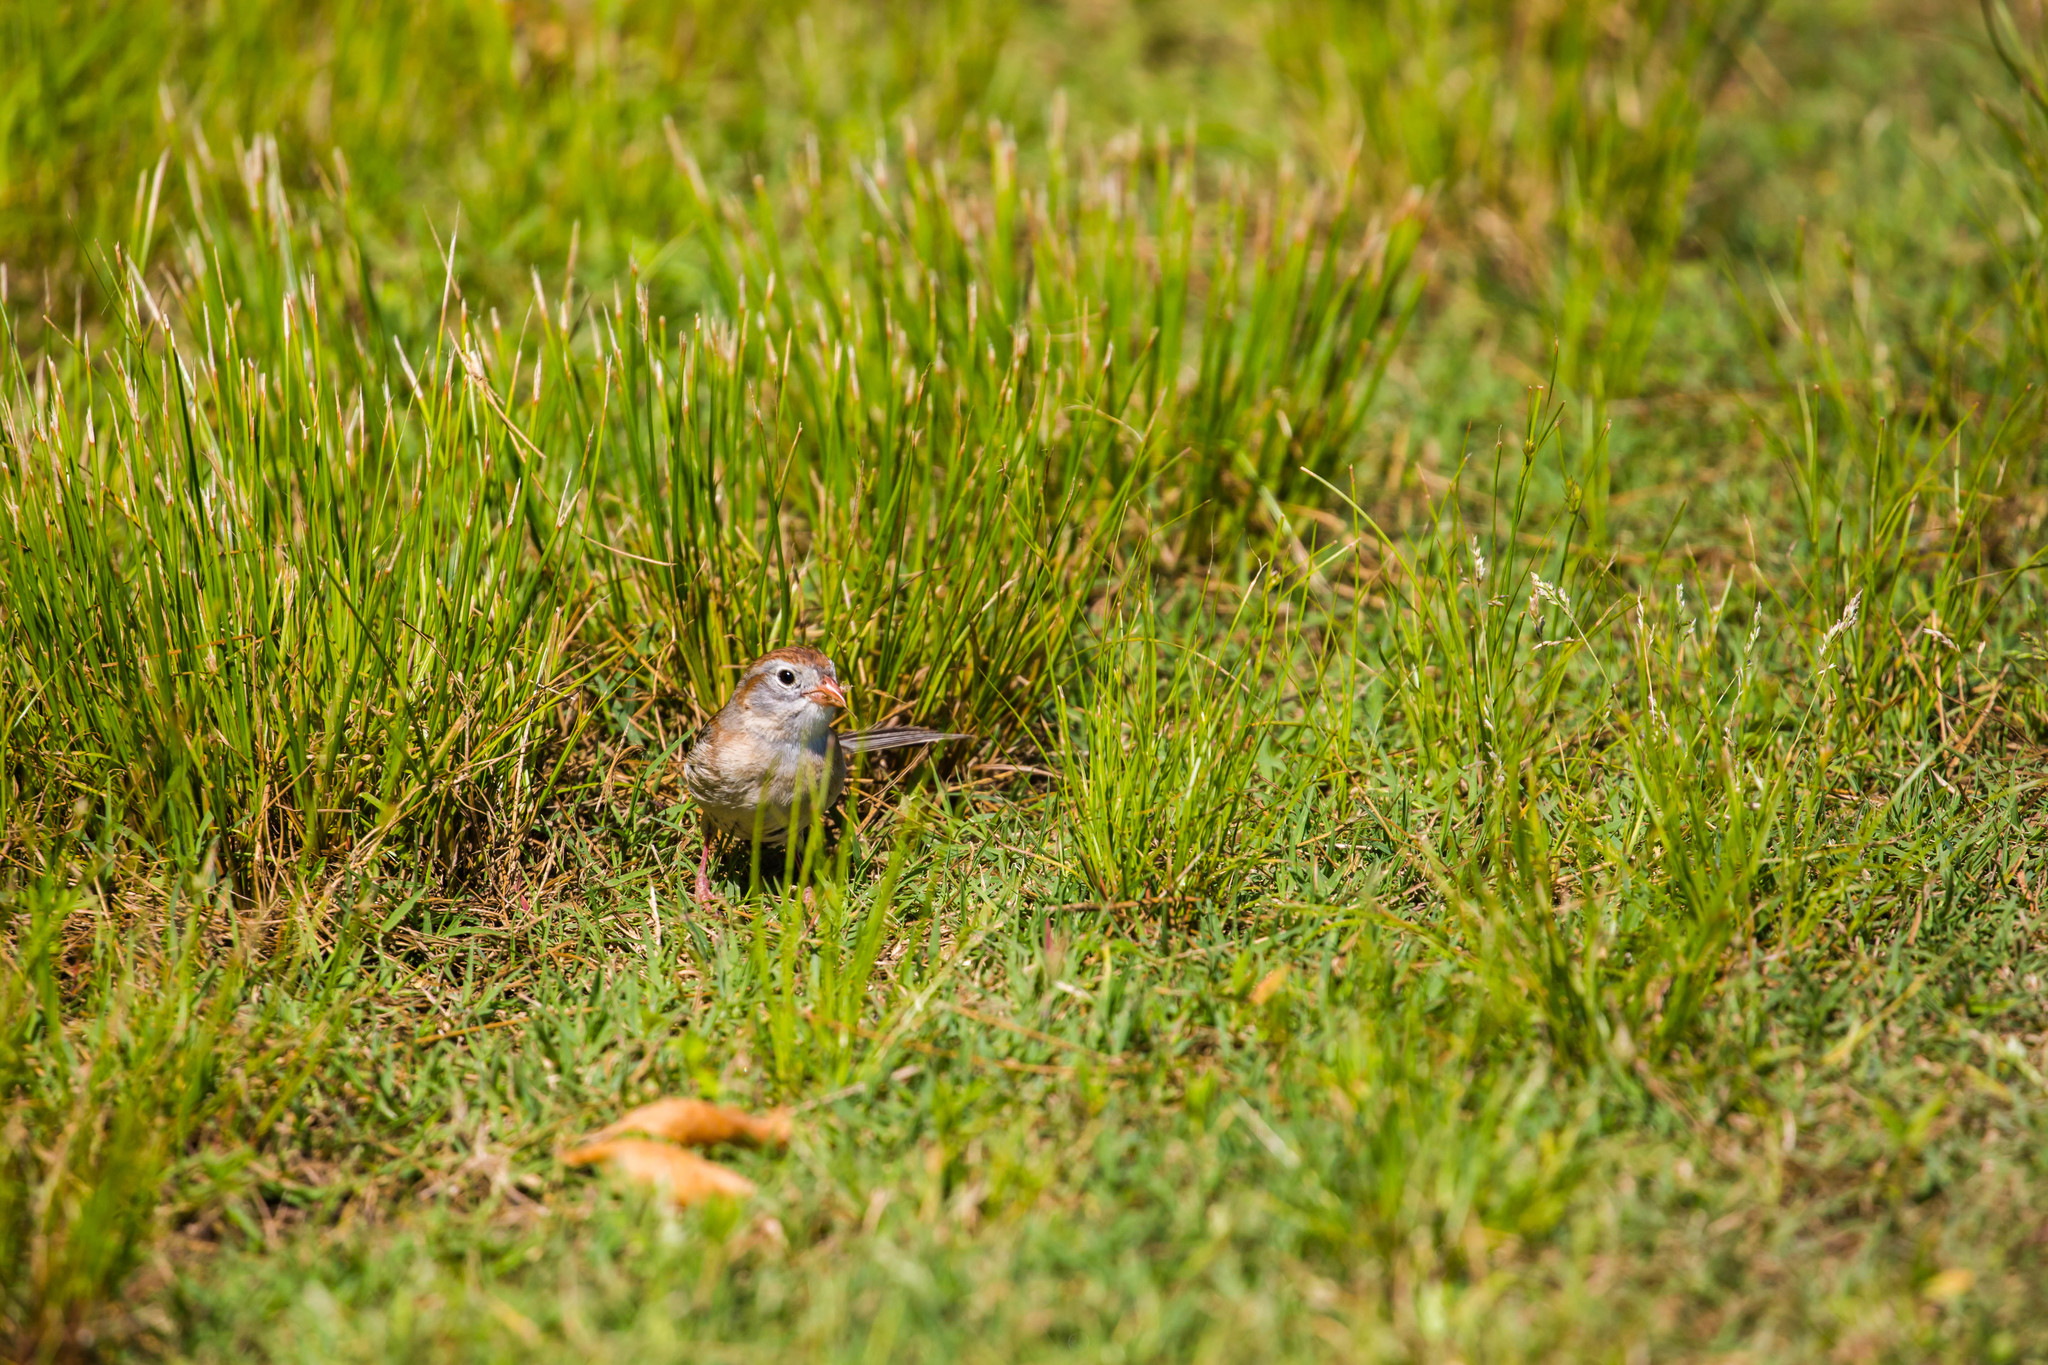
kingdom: Animalia
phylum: Chordata
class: Aves
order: Passeriformes
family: Passerellidae
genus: Spizella
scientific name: Spizella pusilla
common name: Field sparrow
